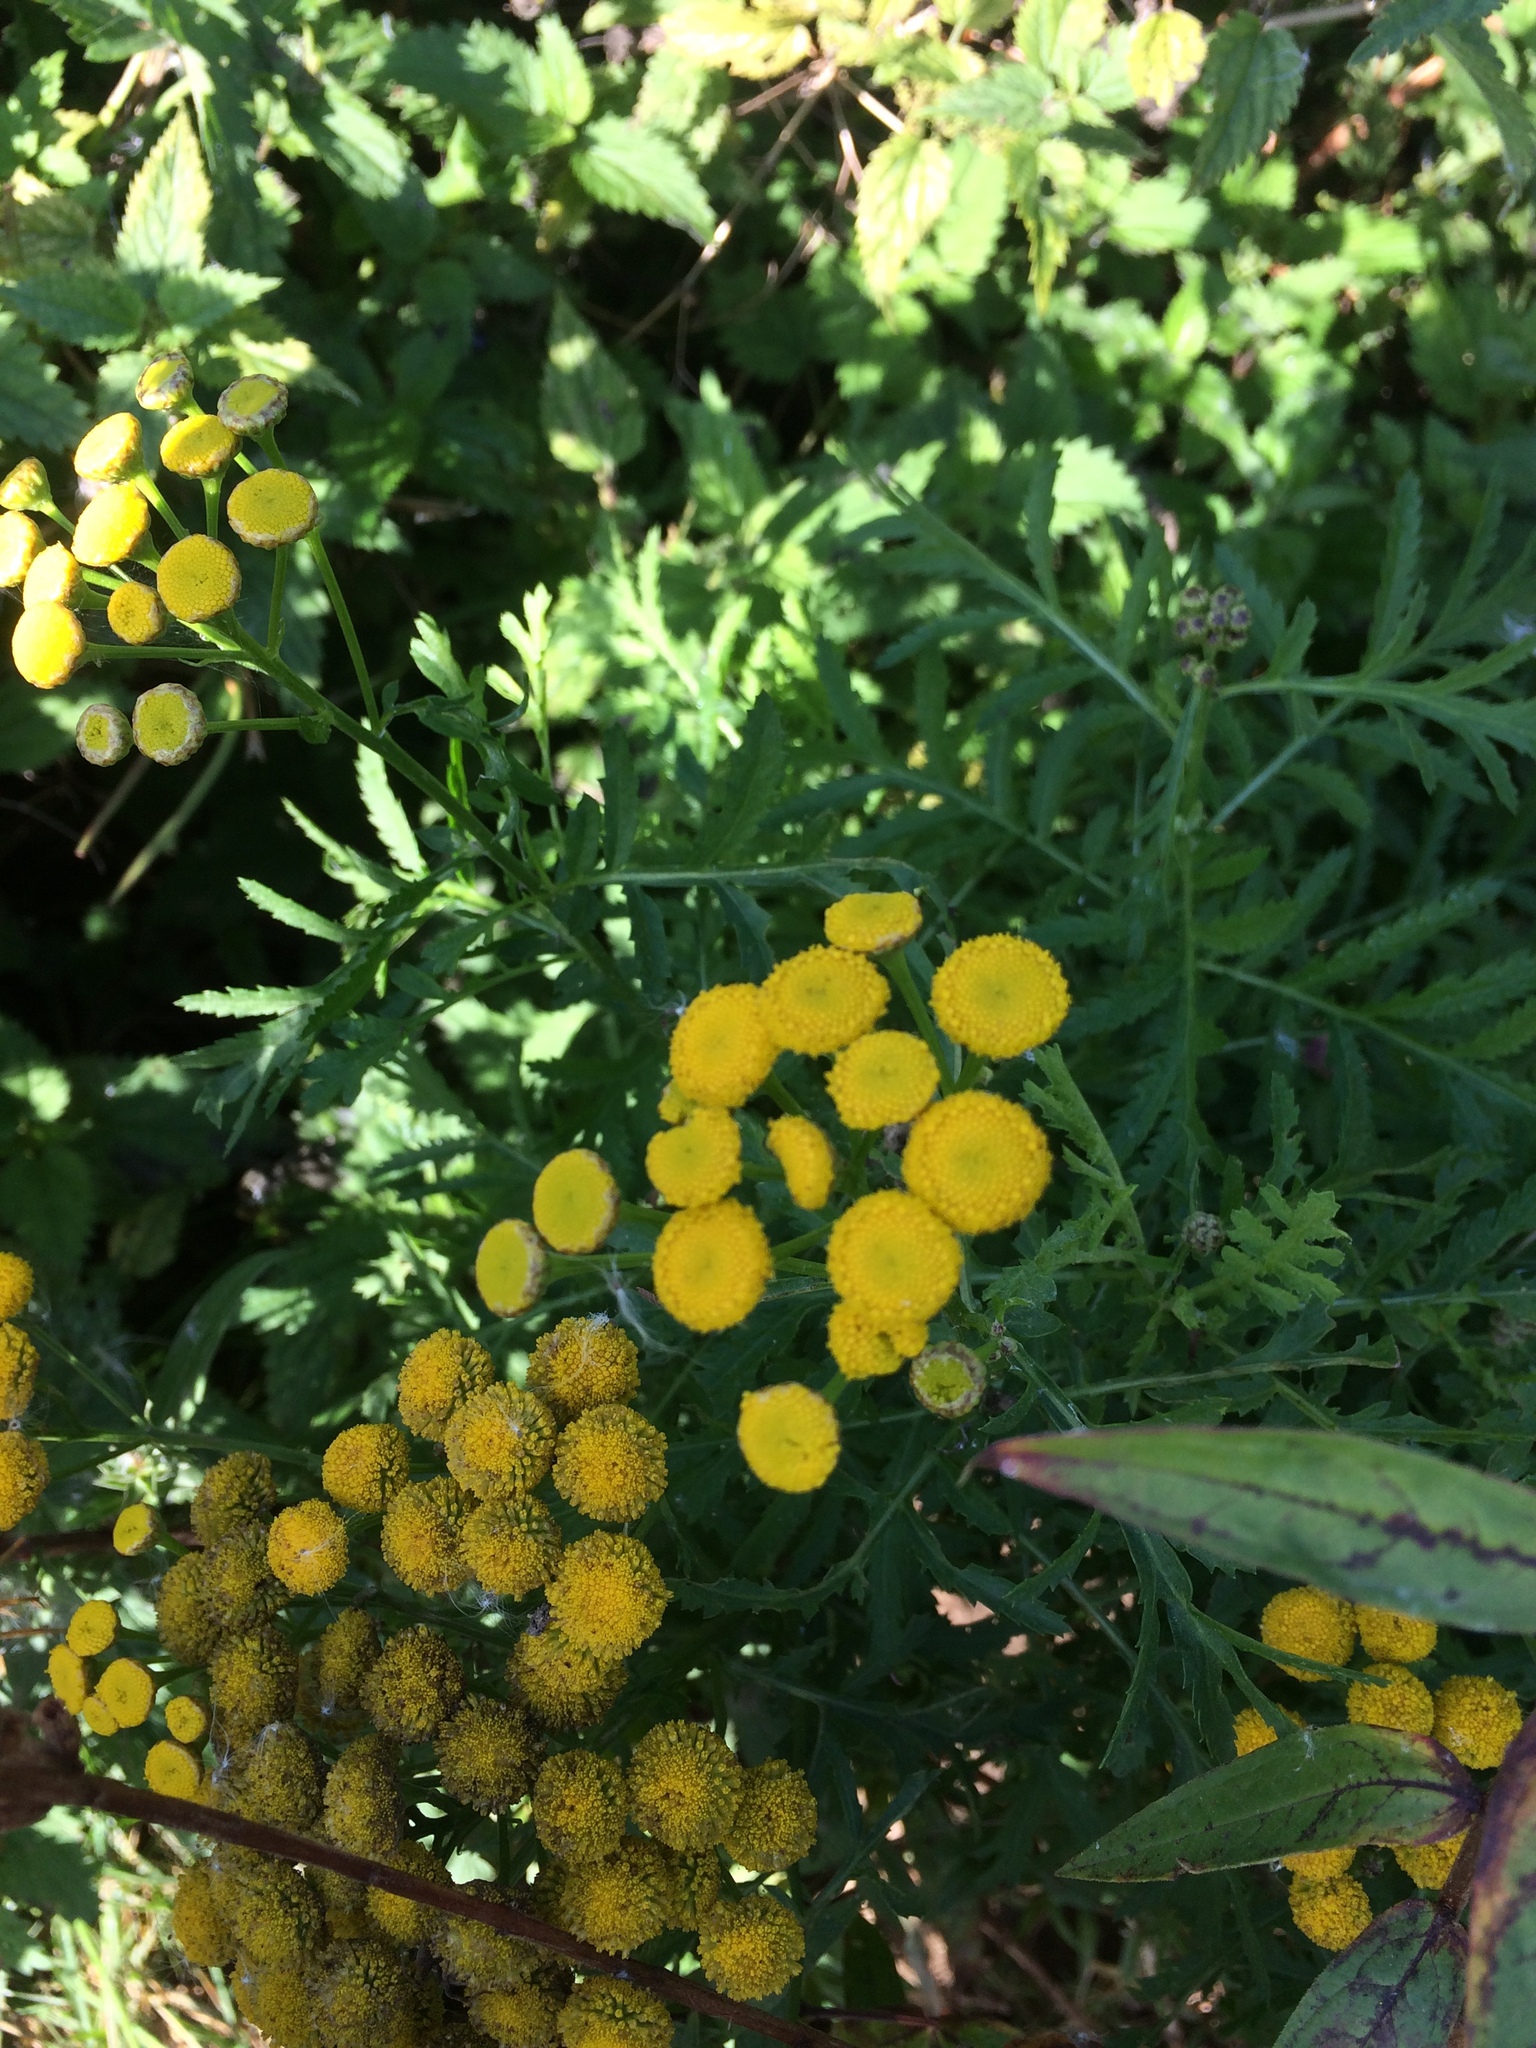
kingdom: Plantae
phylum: Tracheophyta
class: Magnoliopsida
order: Asterales
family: Asteraceae
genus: Tanacetum
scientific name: Tanacetum vulgare
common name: Common tansy
